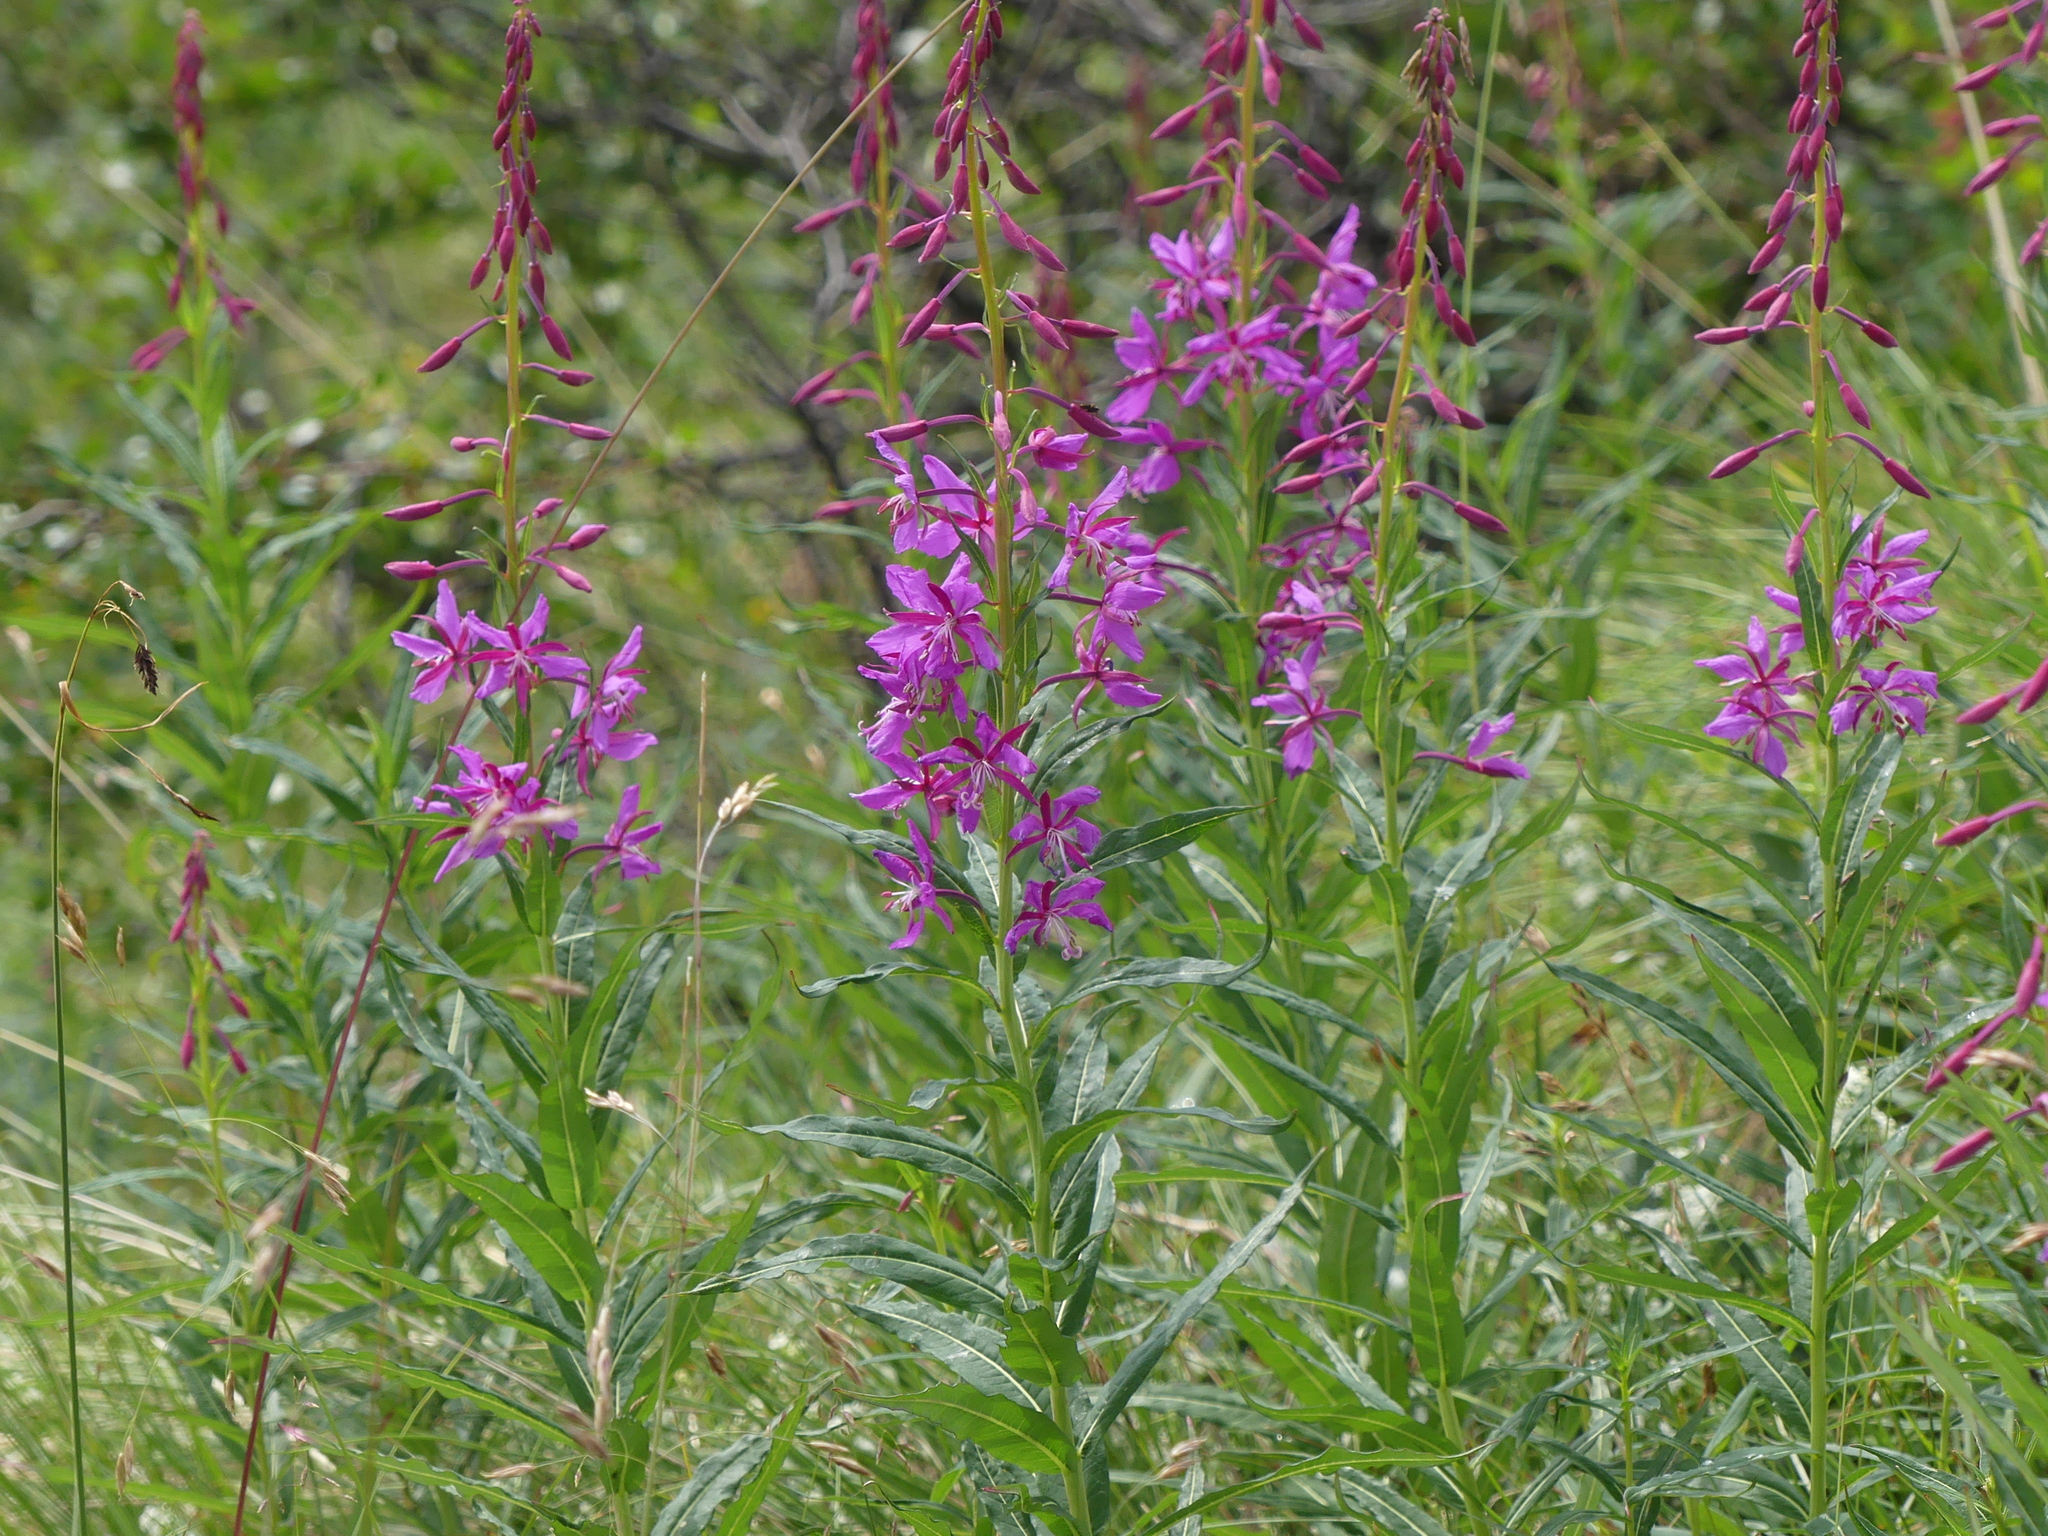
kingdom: Plantae
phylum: Tracheophyta
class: Magnoliopsida
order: Myrtales
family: Onagraceae
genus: Chamaenerion
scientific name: Chamaenerion angustifolium
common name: Fireweed
